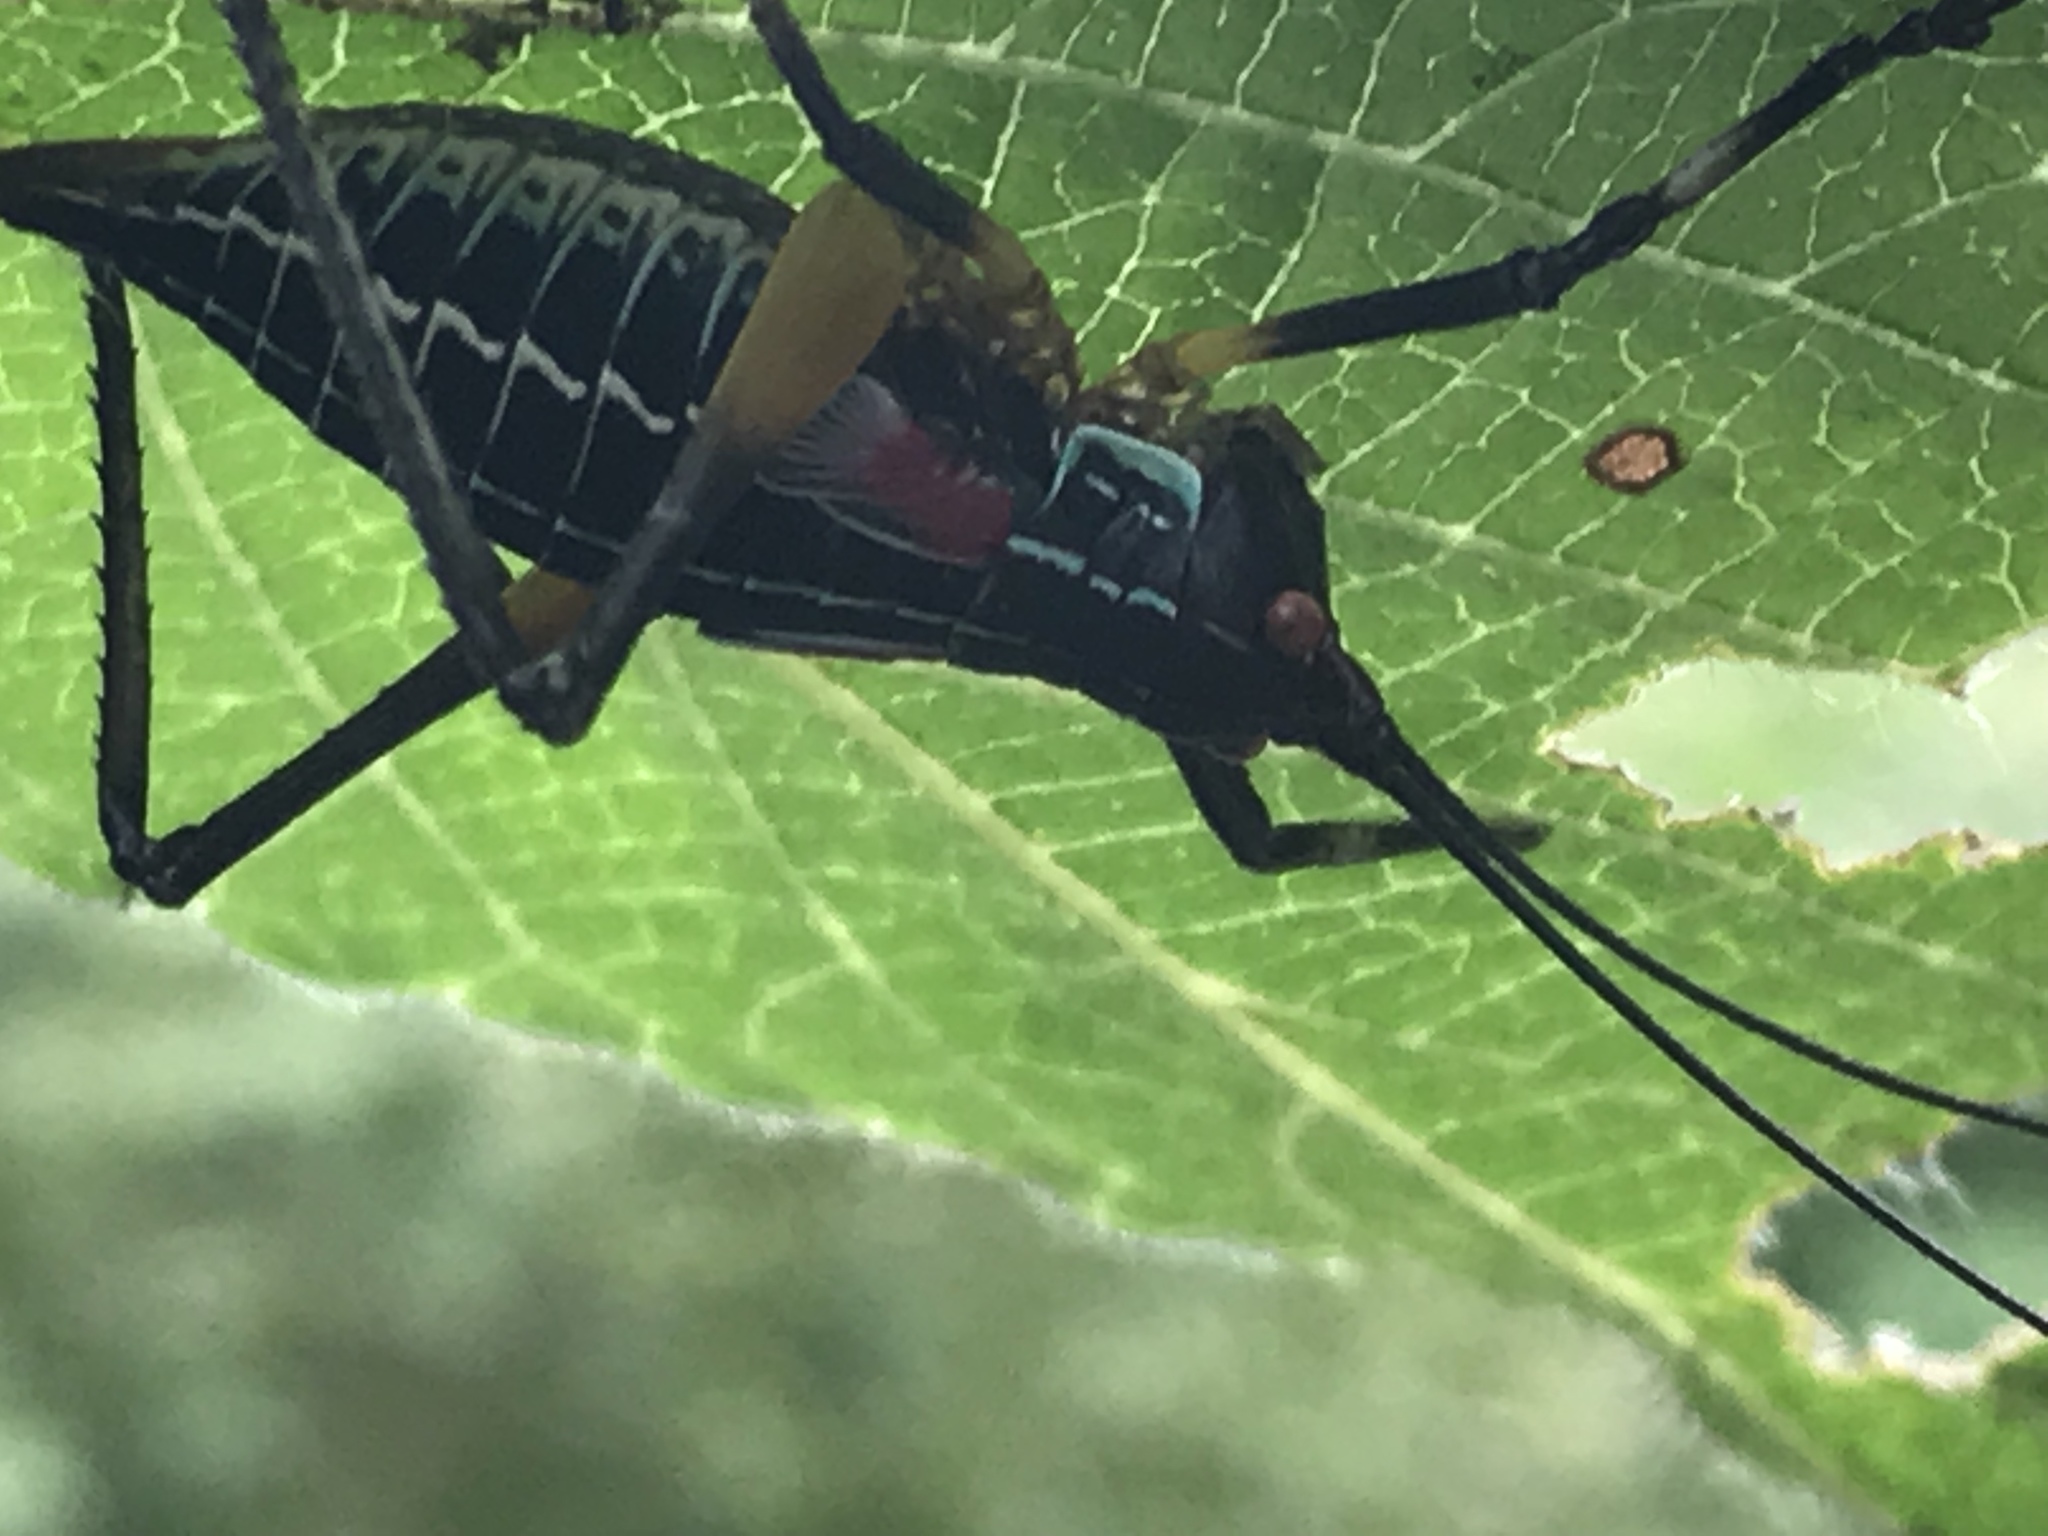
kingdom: Animalia
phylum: Arthropoda
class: Insecta
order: Orthoptera
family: Tettigoniidae
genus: Pterophylla
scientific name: Pterophylla beltrani
